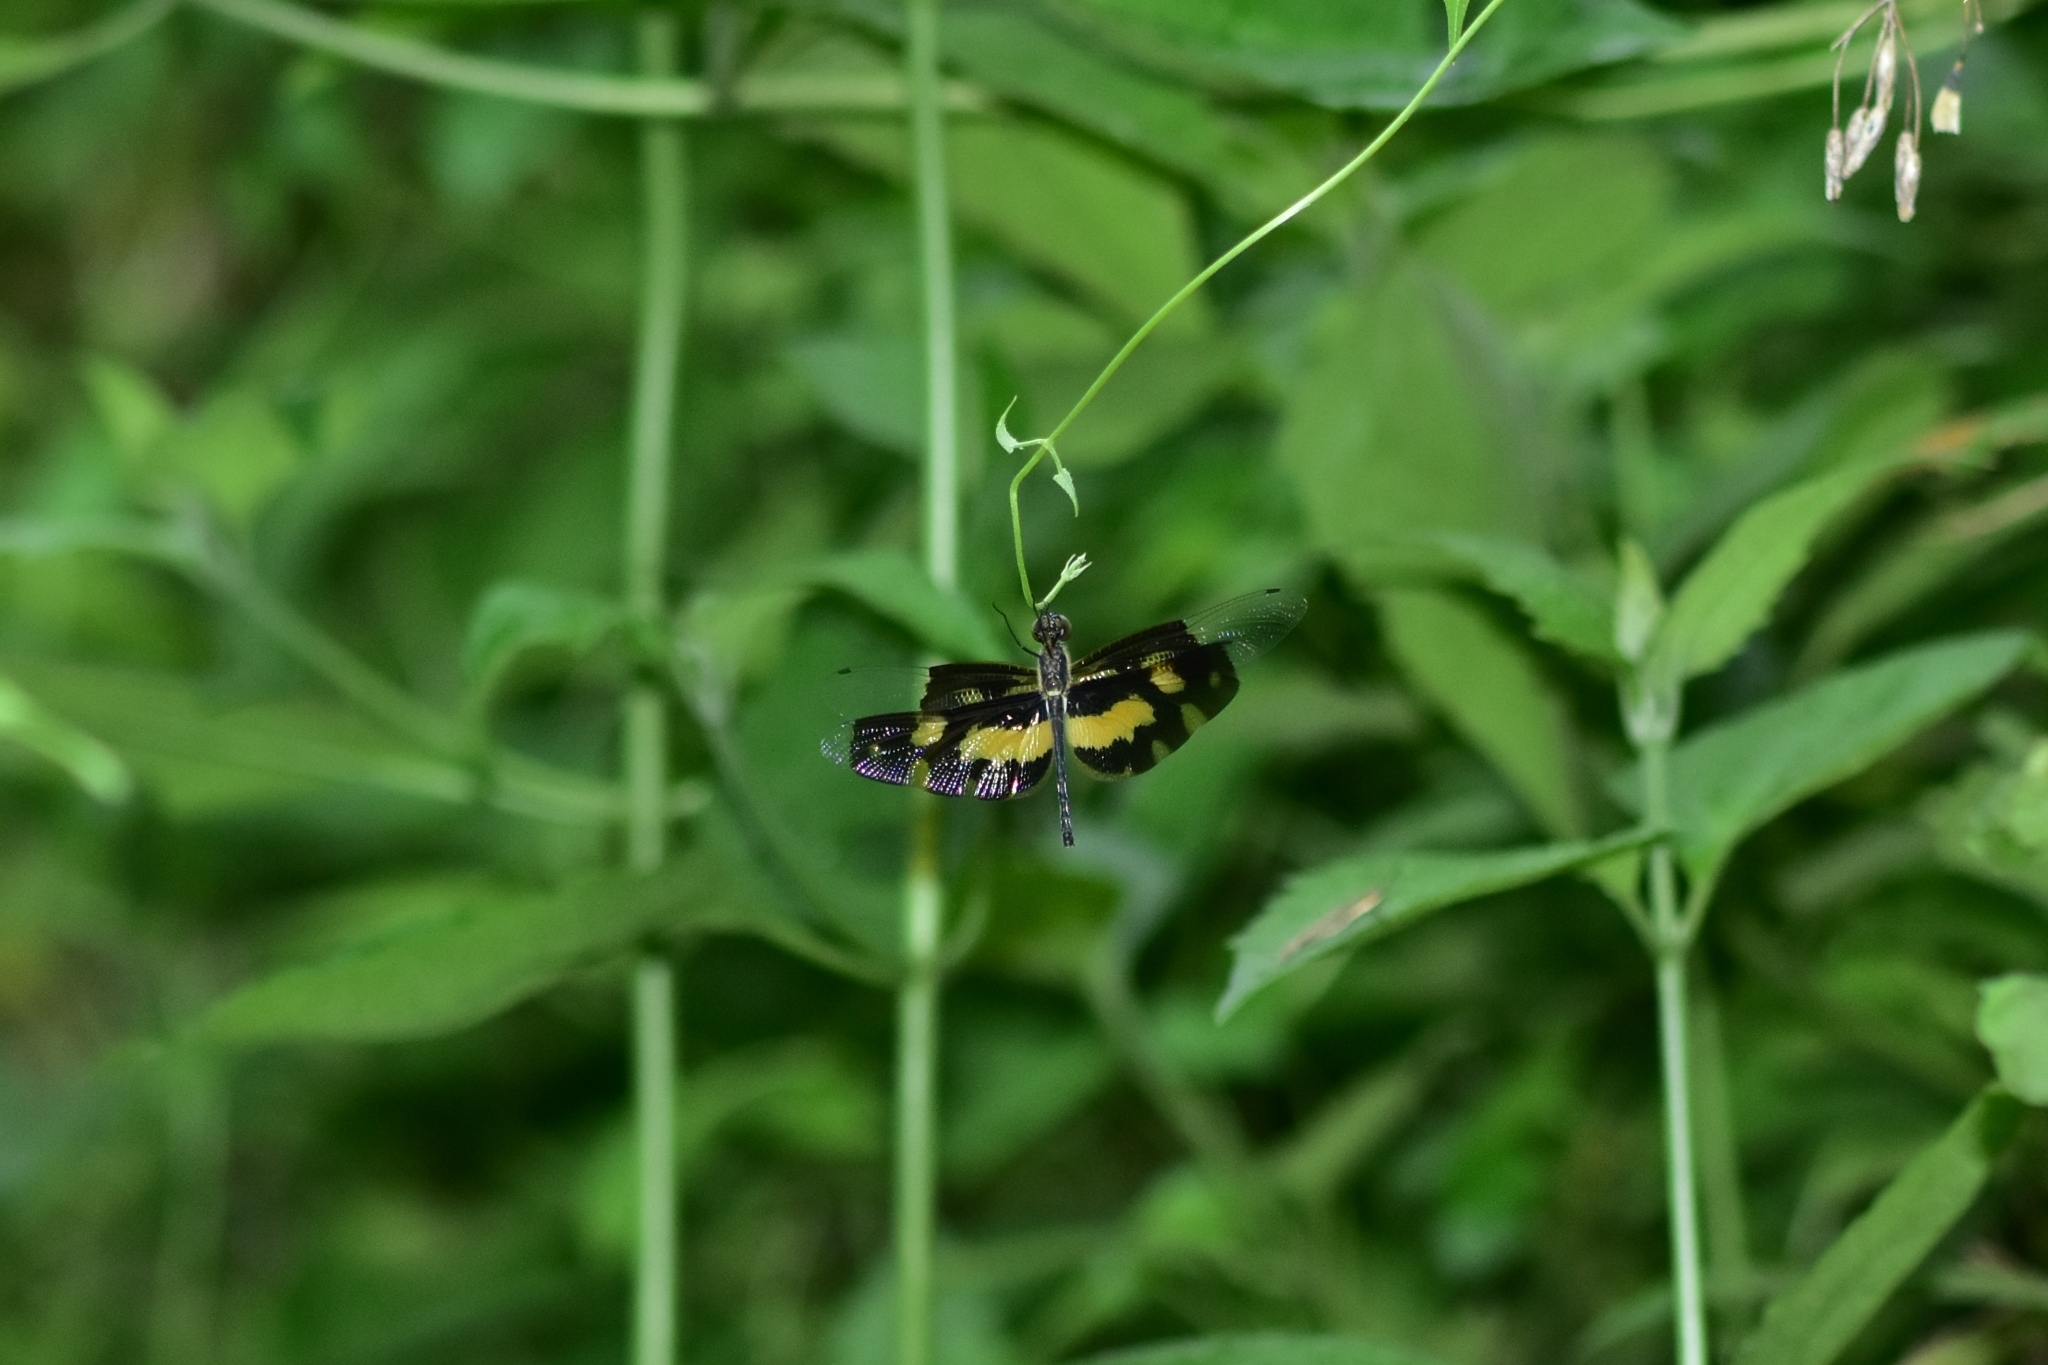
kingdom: Animalia
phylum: Arthropoda
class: Insecta
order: Odonata
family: Libellulidae
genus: Rhyothemis
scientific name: Rhyothemis variegata
